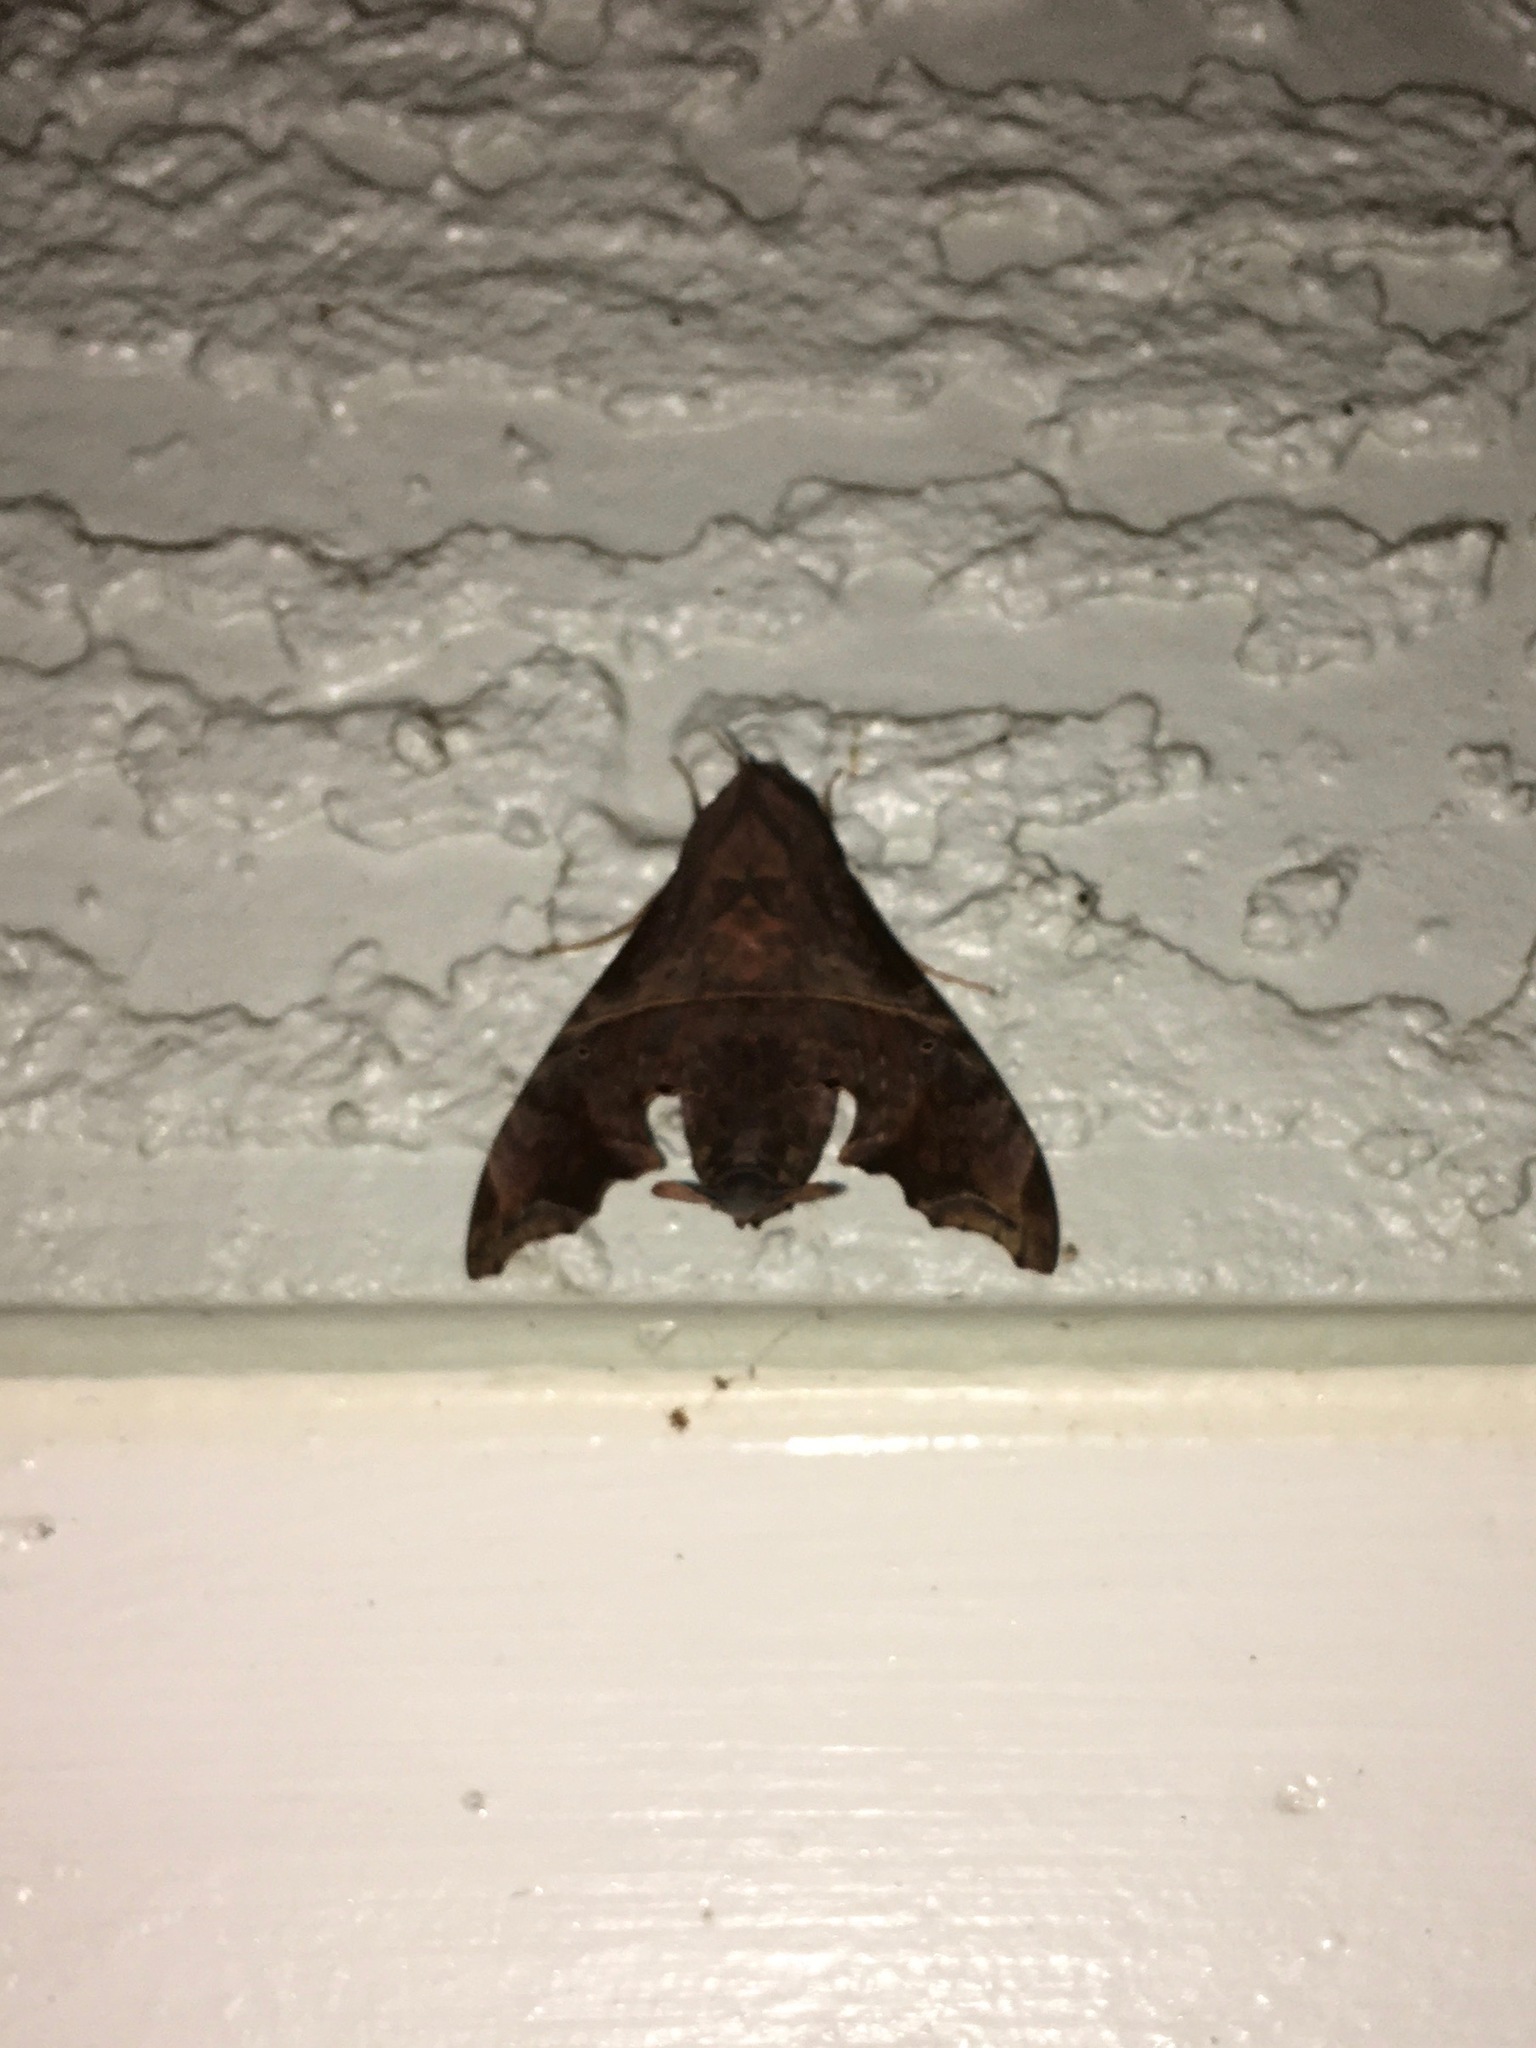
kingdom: Animalia
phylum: Arthropoda
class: Insecta
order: Lepidoptera
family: Sphingidae
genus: Enyo
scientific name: Enyo lugubris
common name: Mournful sphinx
